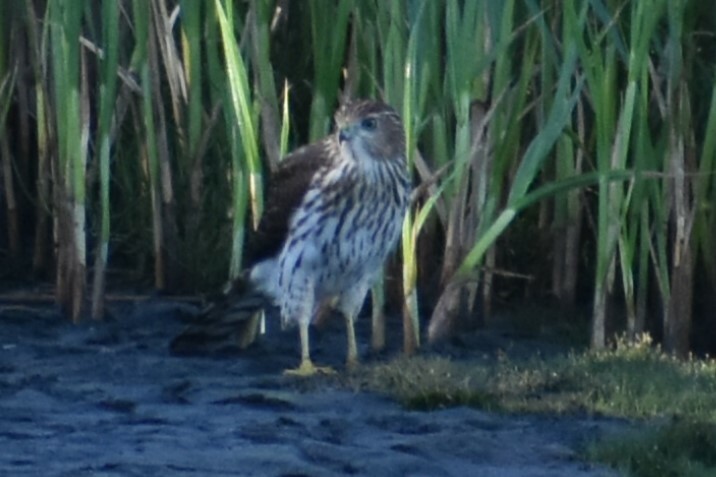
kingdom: Animalia
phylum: Chordata
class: Aves
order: Accipitriformes
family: Accipitridae
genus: Accipiter
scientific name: Accipiter cooperii
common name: Cooper's hawk
